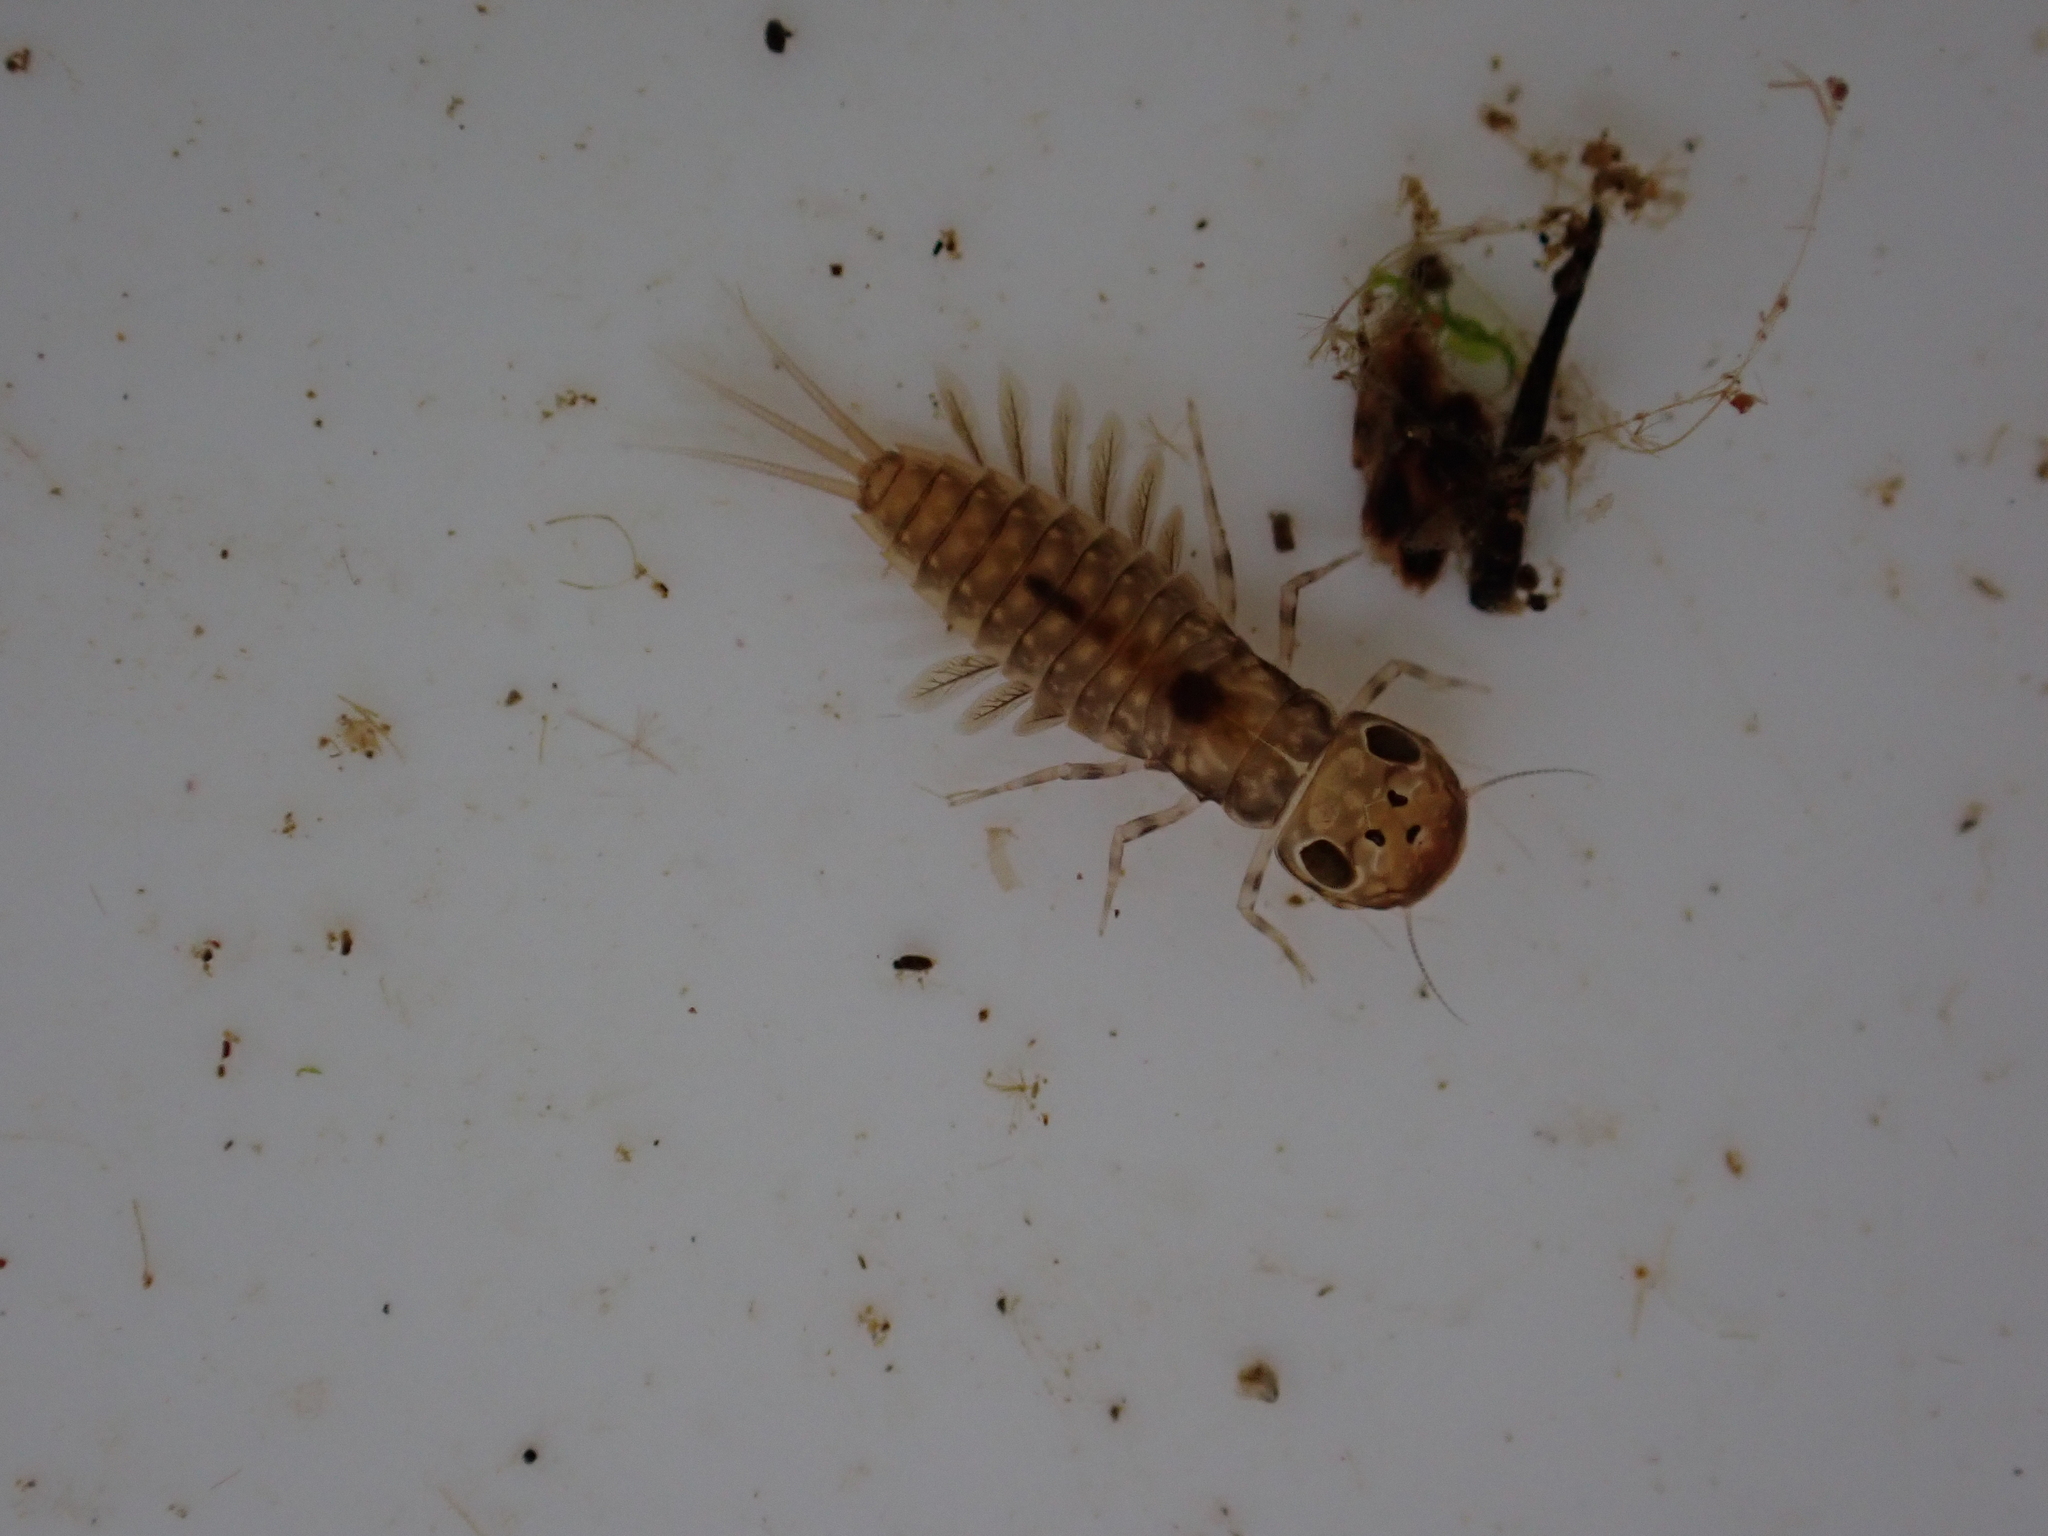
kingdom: Animalia
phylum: Arthropoda
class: Insecta
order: Ephemeroptera
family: Ameletopsidae
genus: Ameletopsis
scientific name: Ameletopsis perscitus
